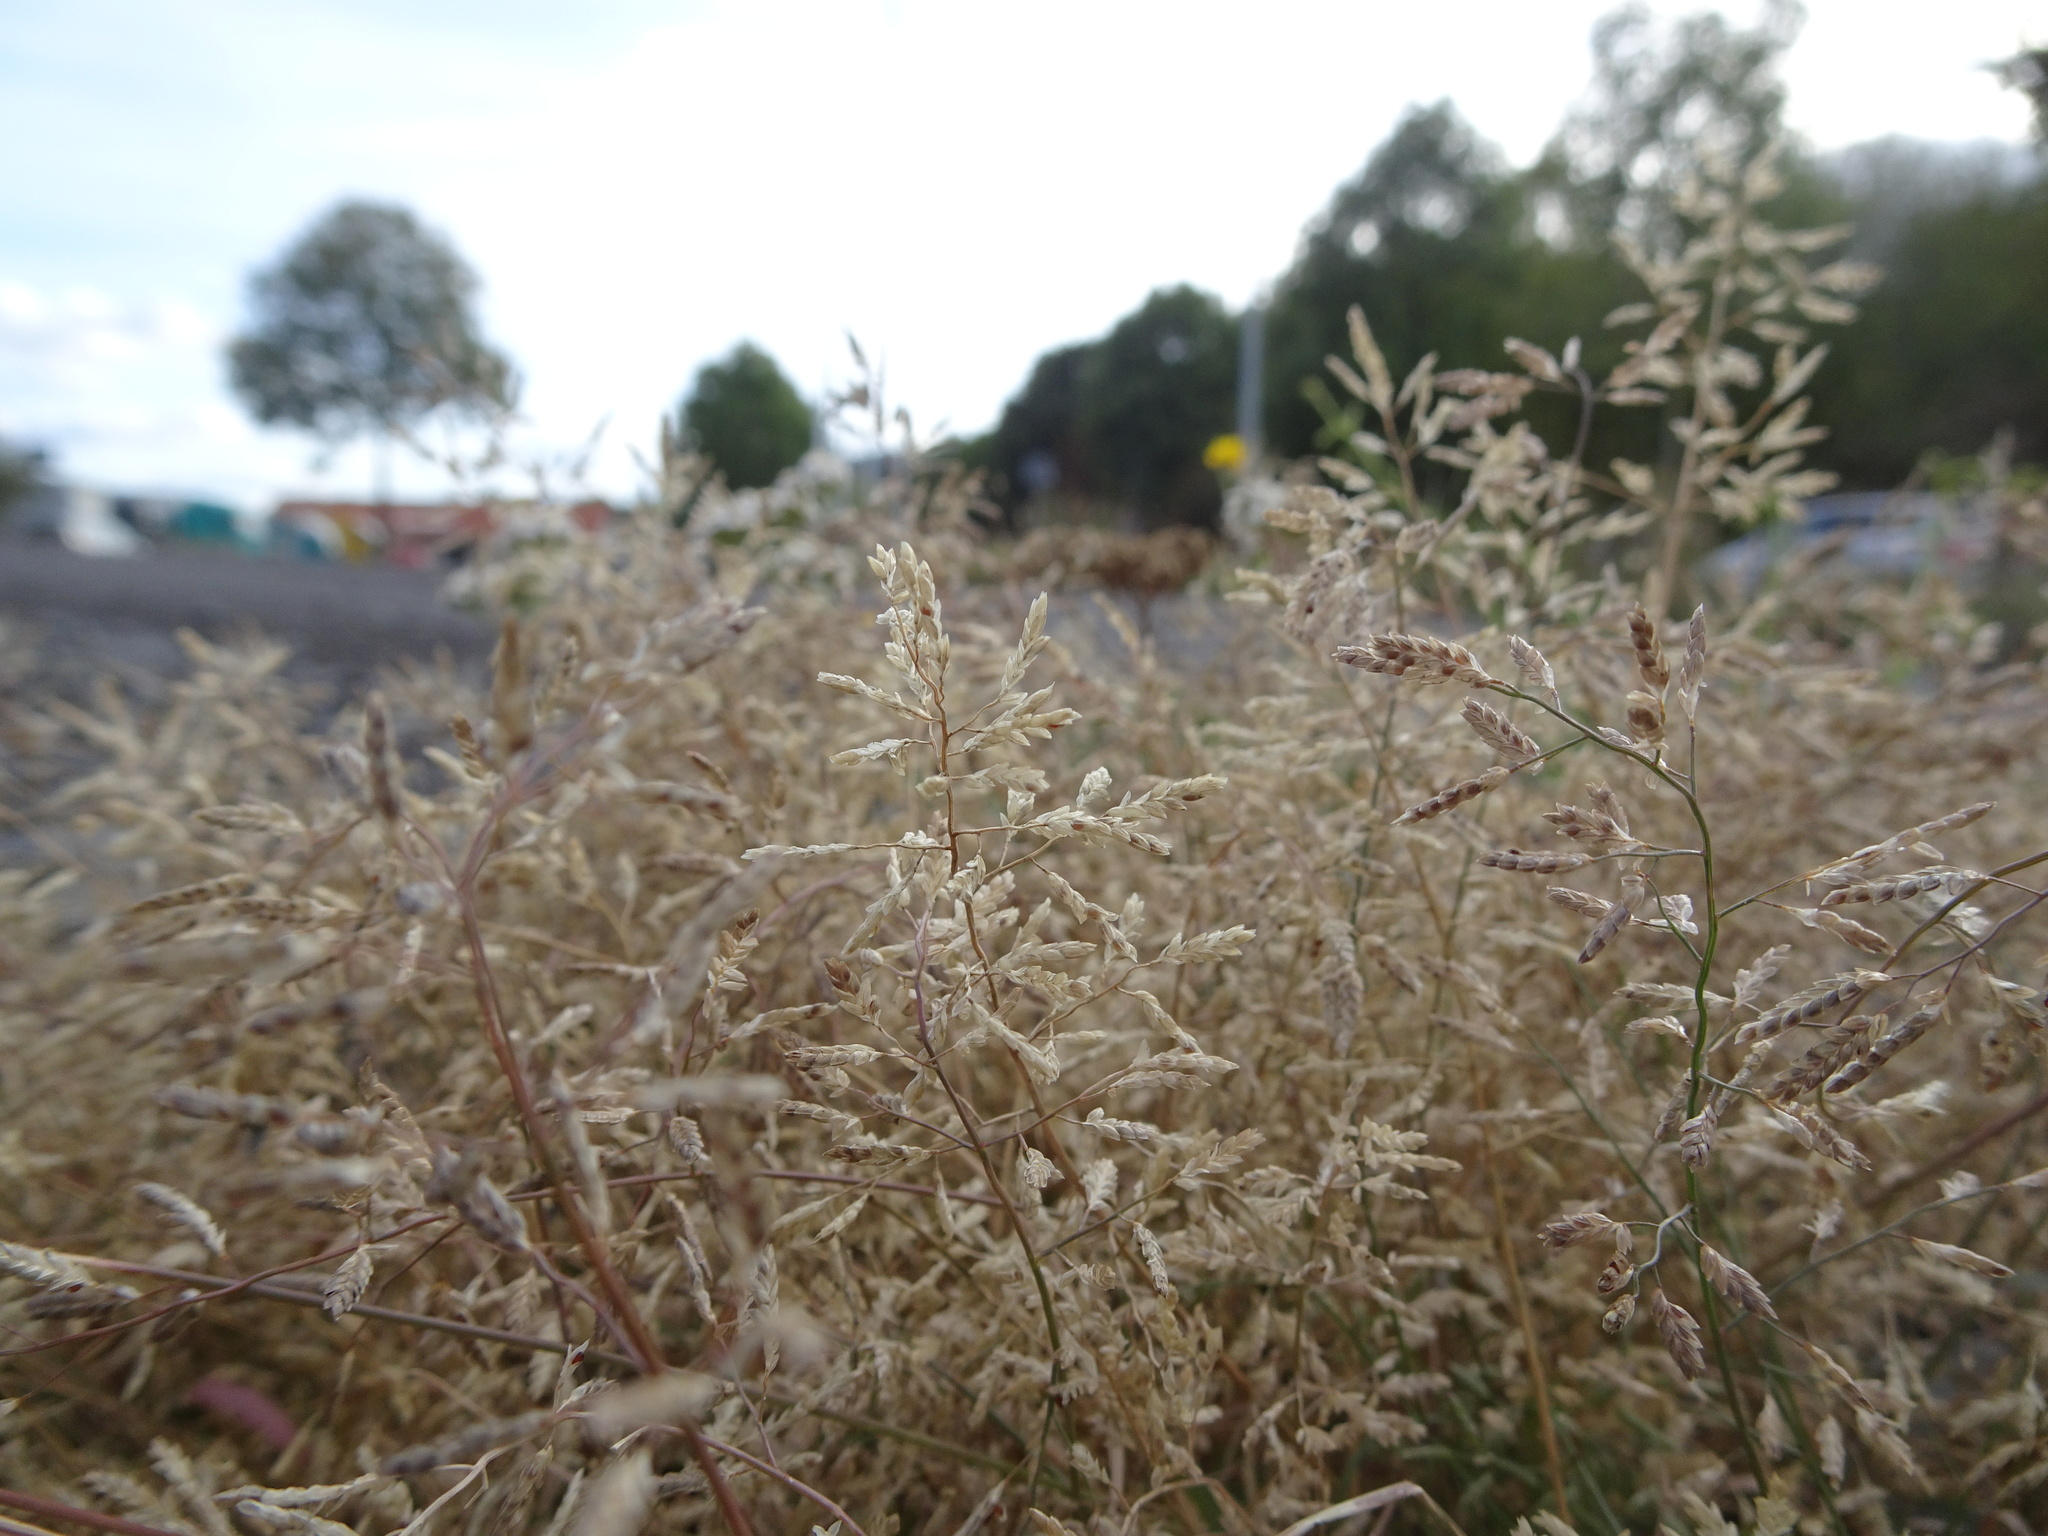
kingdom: Plantae
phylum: Tracheophyta
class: Liliopsida
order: Poales
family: Poaceae
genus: Eragrostis
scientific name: Eragrostis minor
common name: Small love-grass
